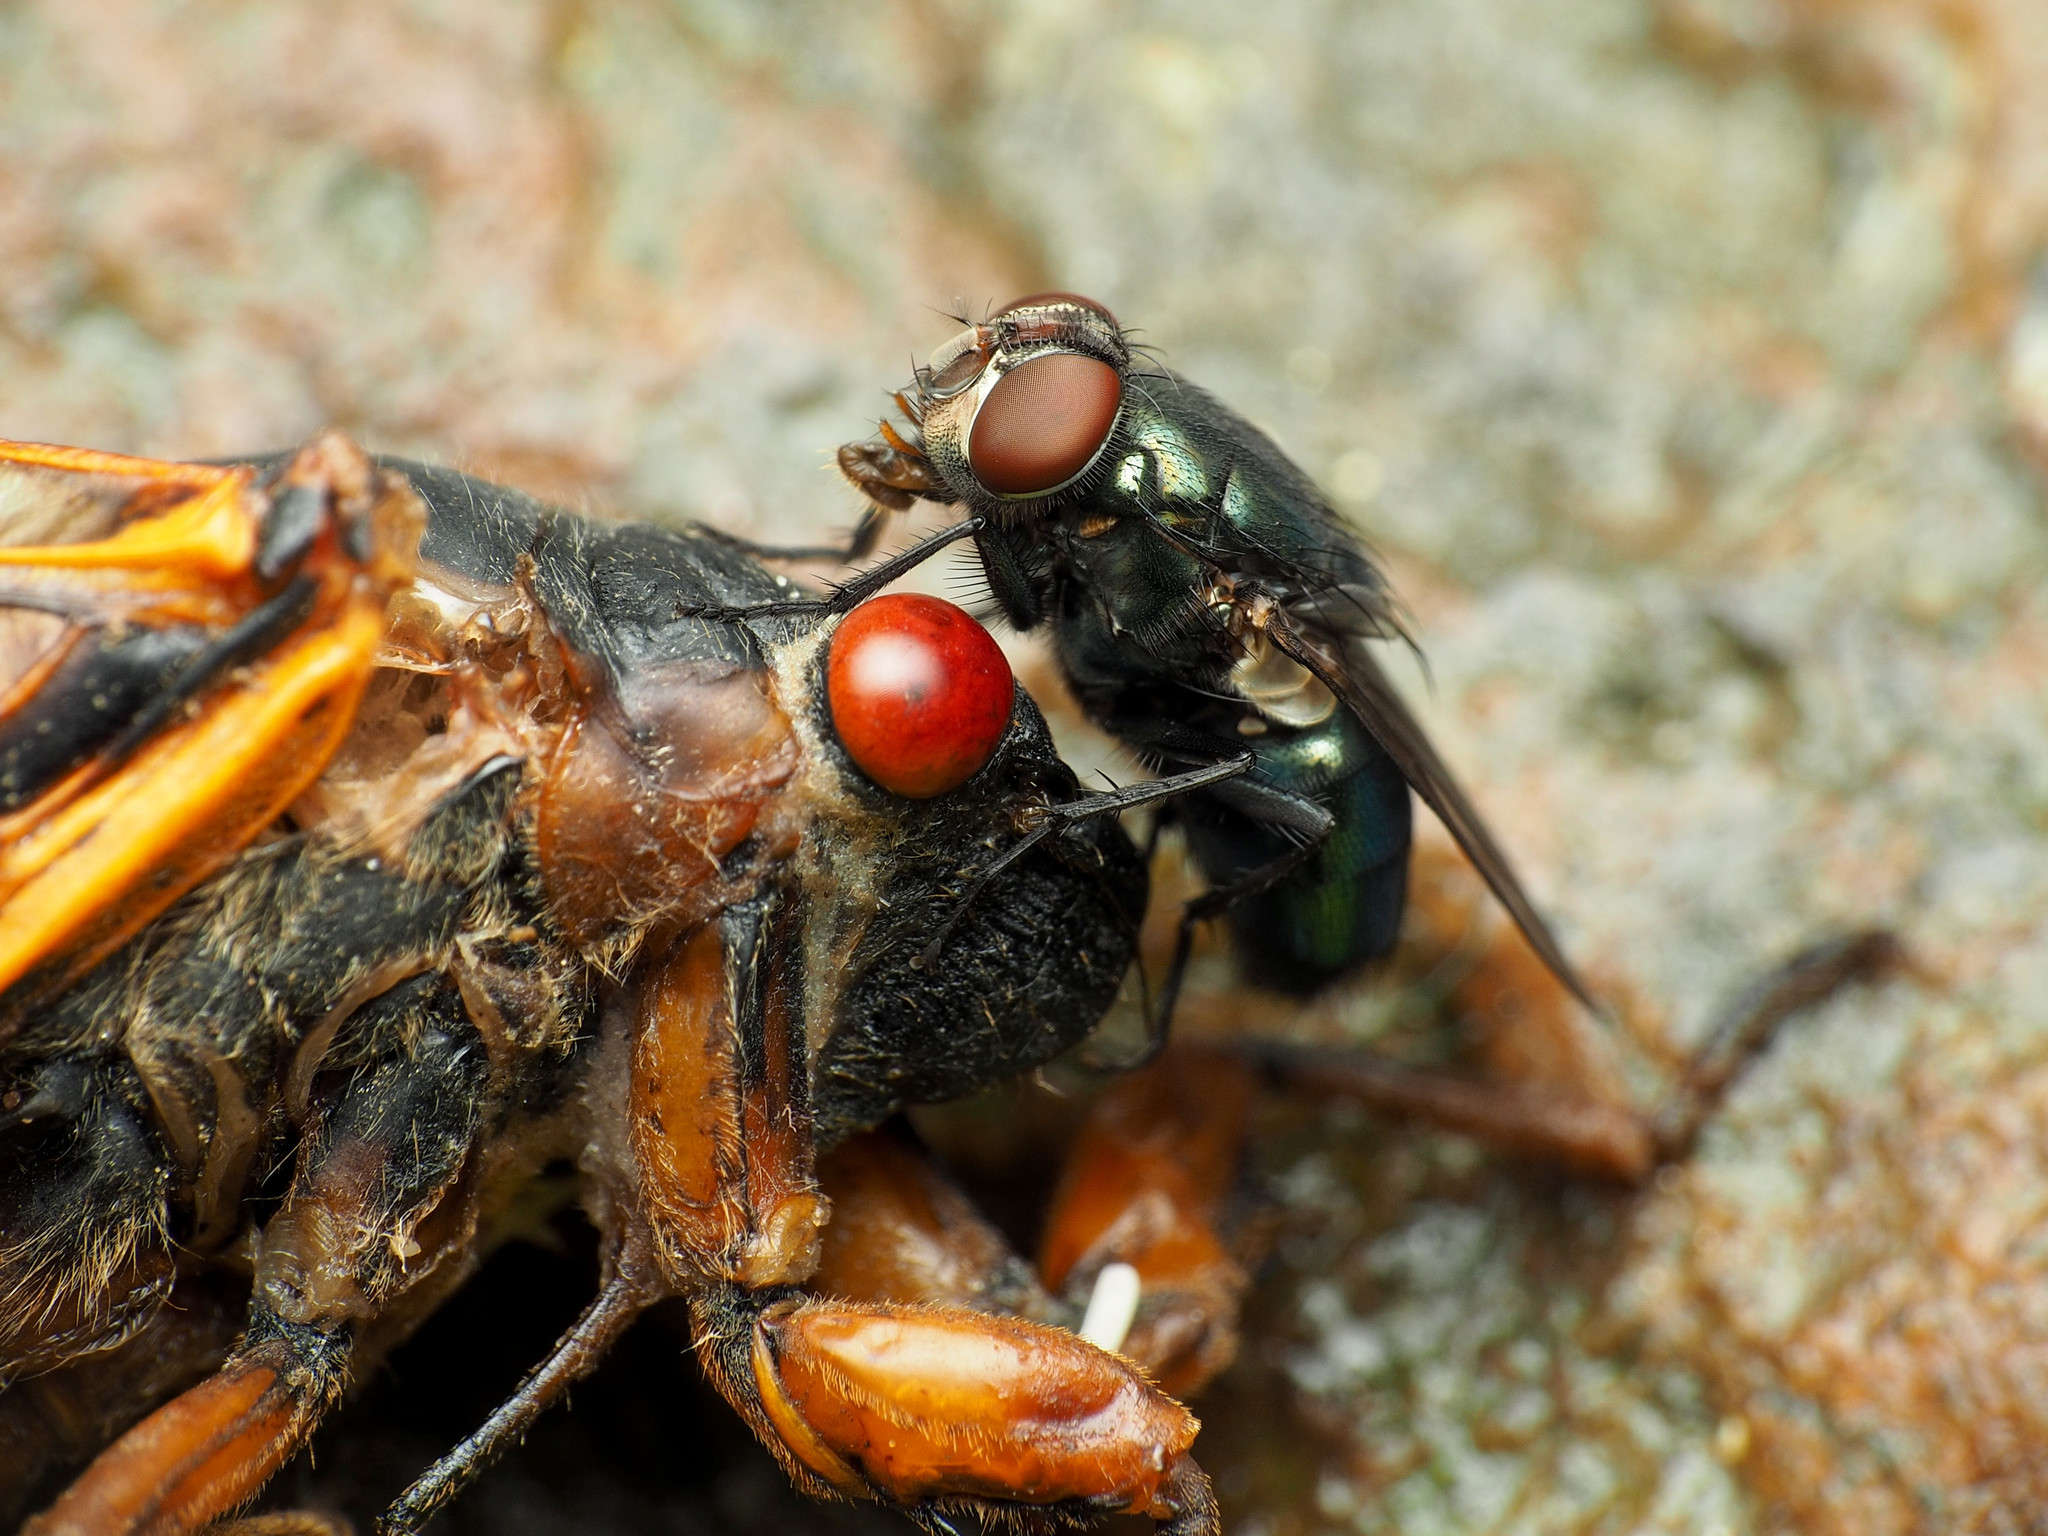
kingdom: Animalia
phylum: Arthropoda
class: Insecta
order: Hemiptera
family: Cicadidae
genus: Magicicada
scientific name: Magicicada septendecim
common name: Periodical cicada
